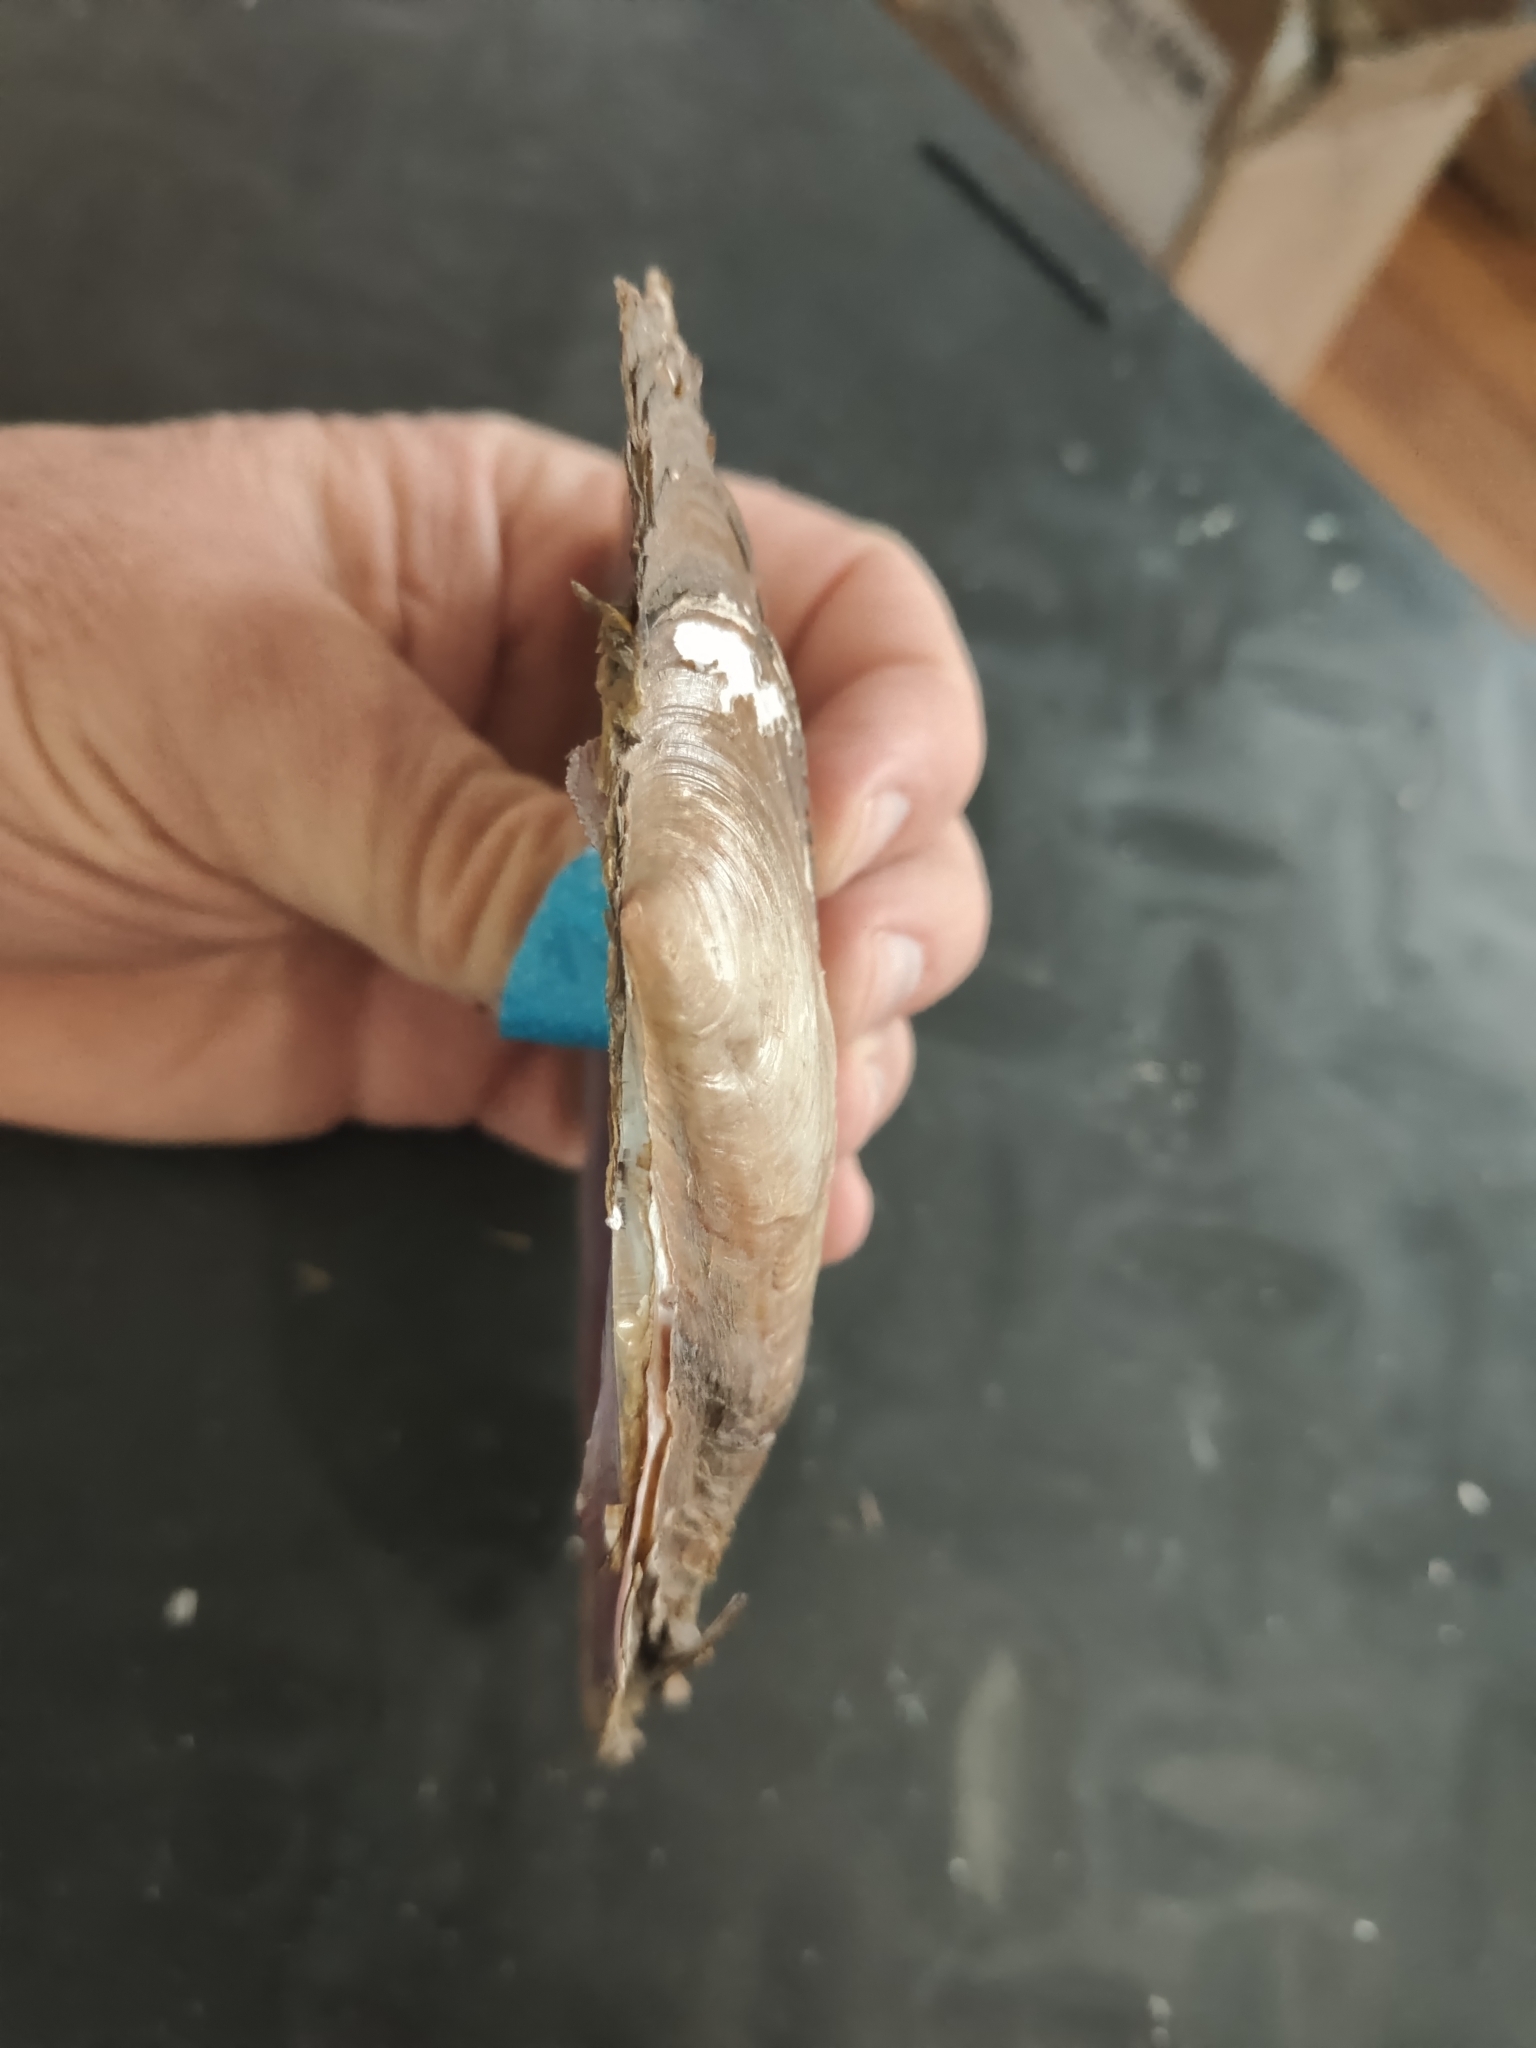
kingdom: Animalia
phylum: Mollusca
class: Bivalvia
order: Unionida
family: Unionidae
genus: Potamilus
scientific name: Potamilus ohiensis
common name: Pink papershell
